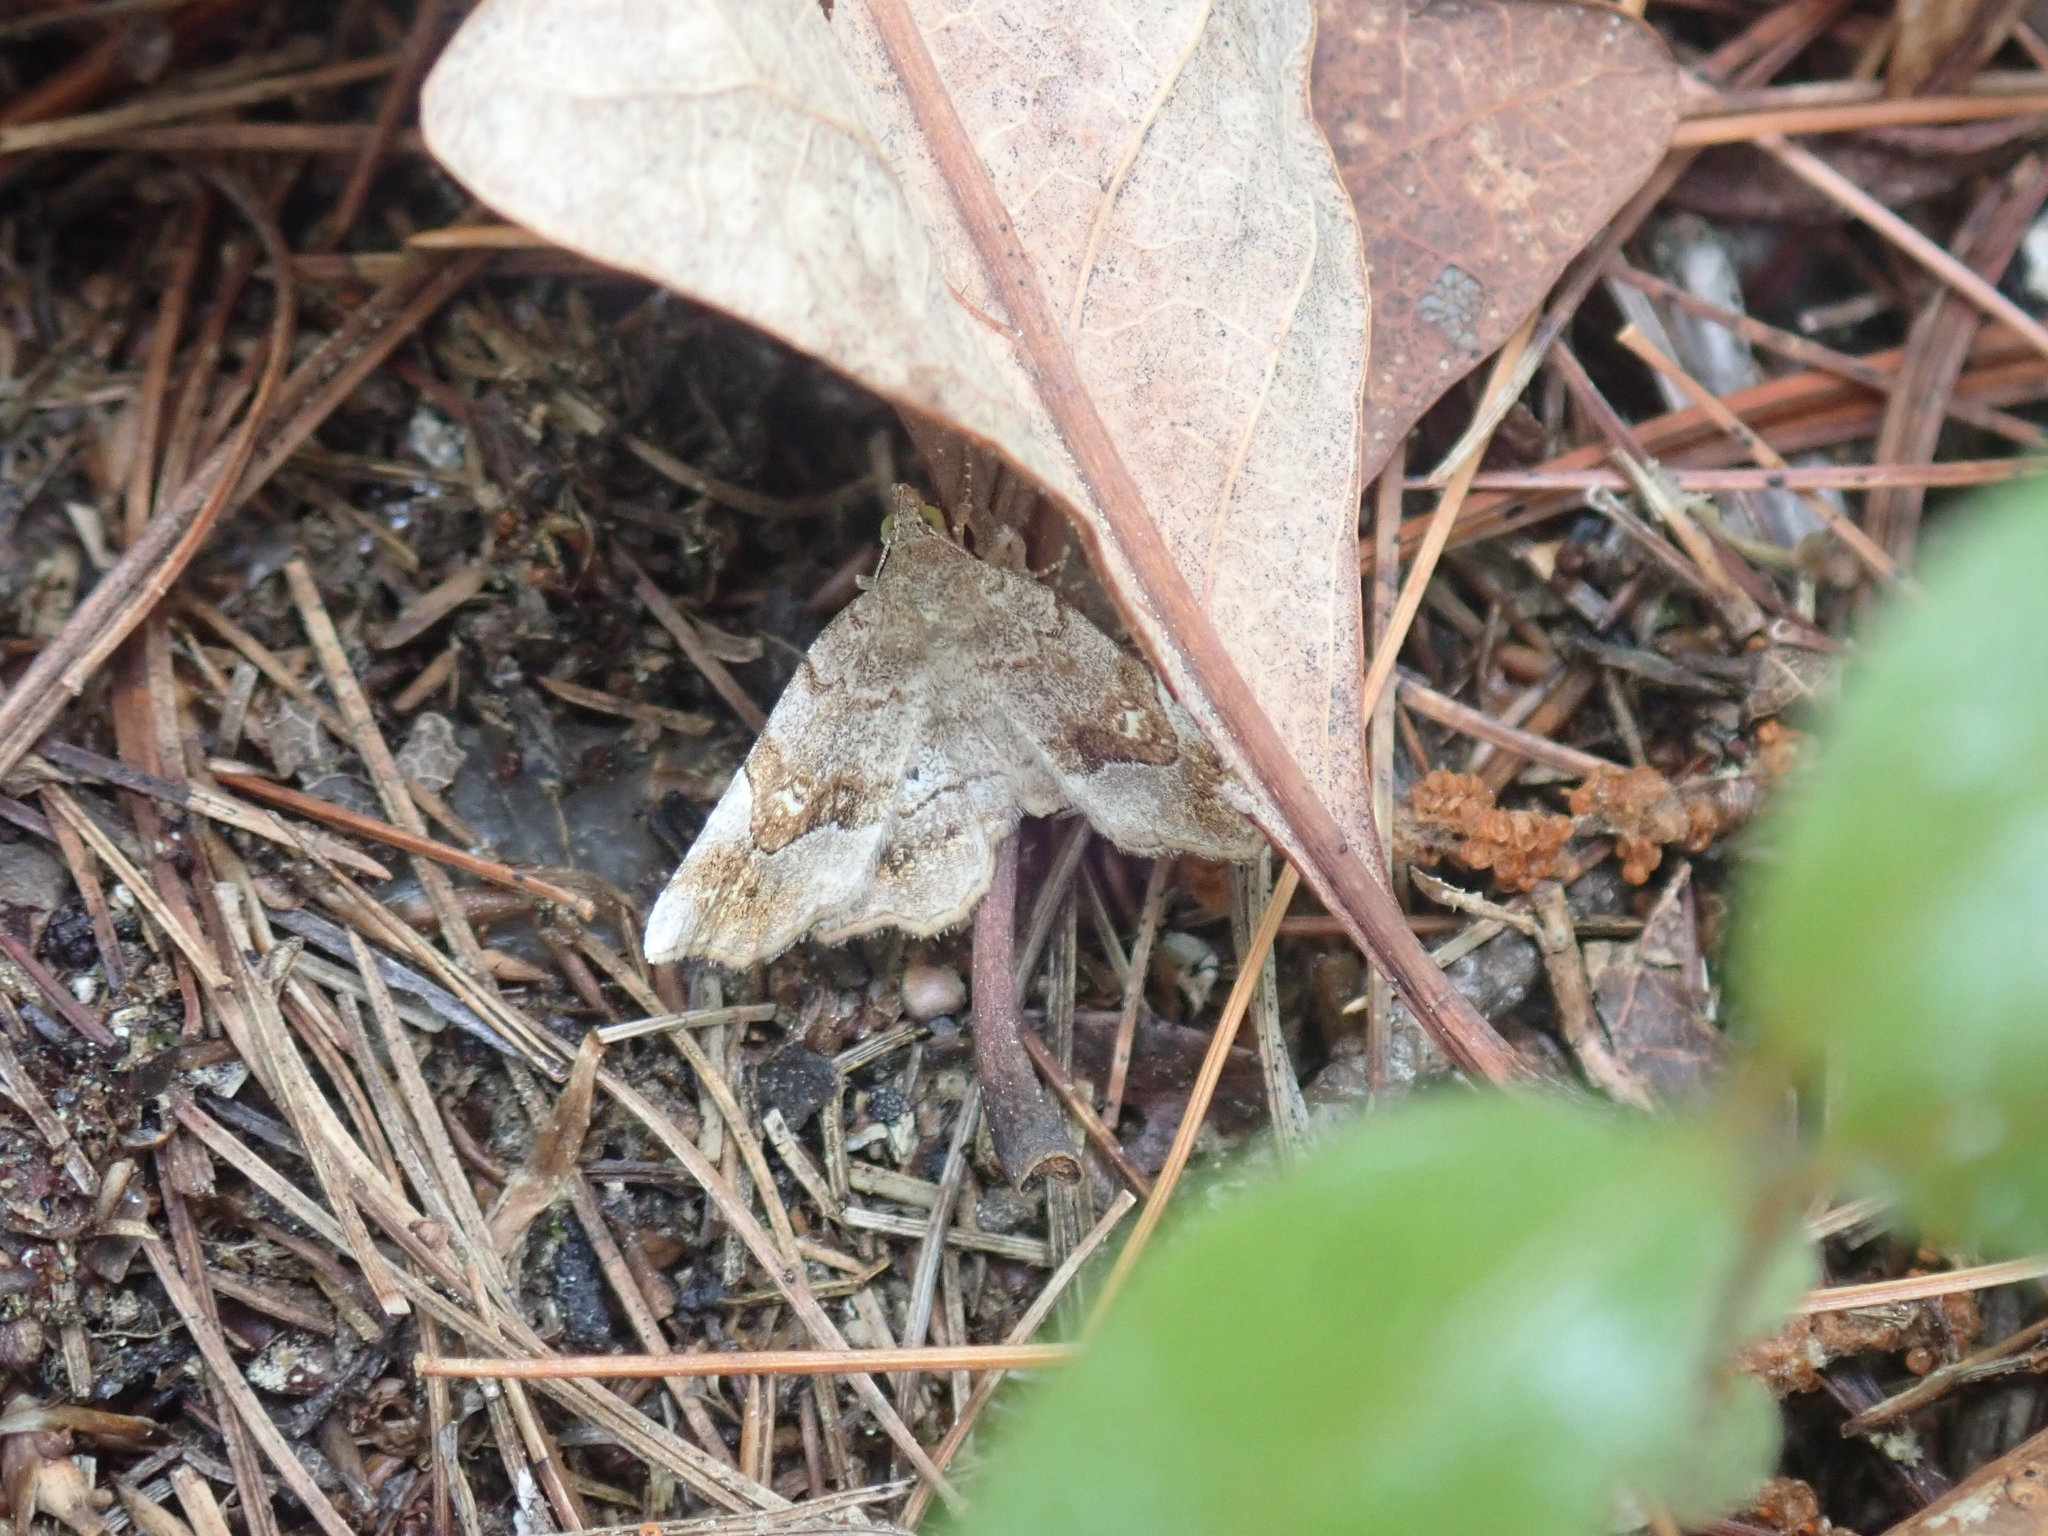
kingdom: Animalia
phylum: Arthropoda
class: Insecta
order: Lepidoptera
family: Erebidae
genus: Pangrapta
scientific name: Pangrapta decoralis
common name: Decorated owlet
